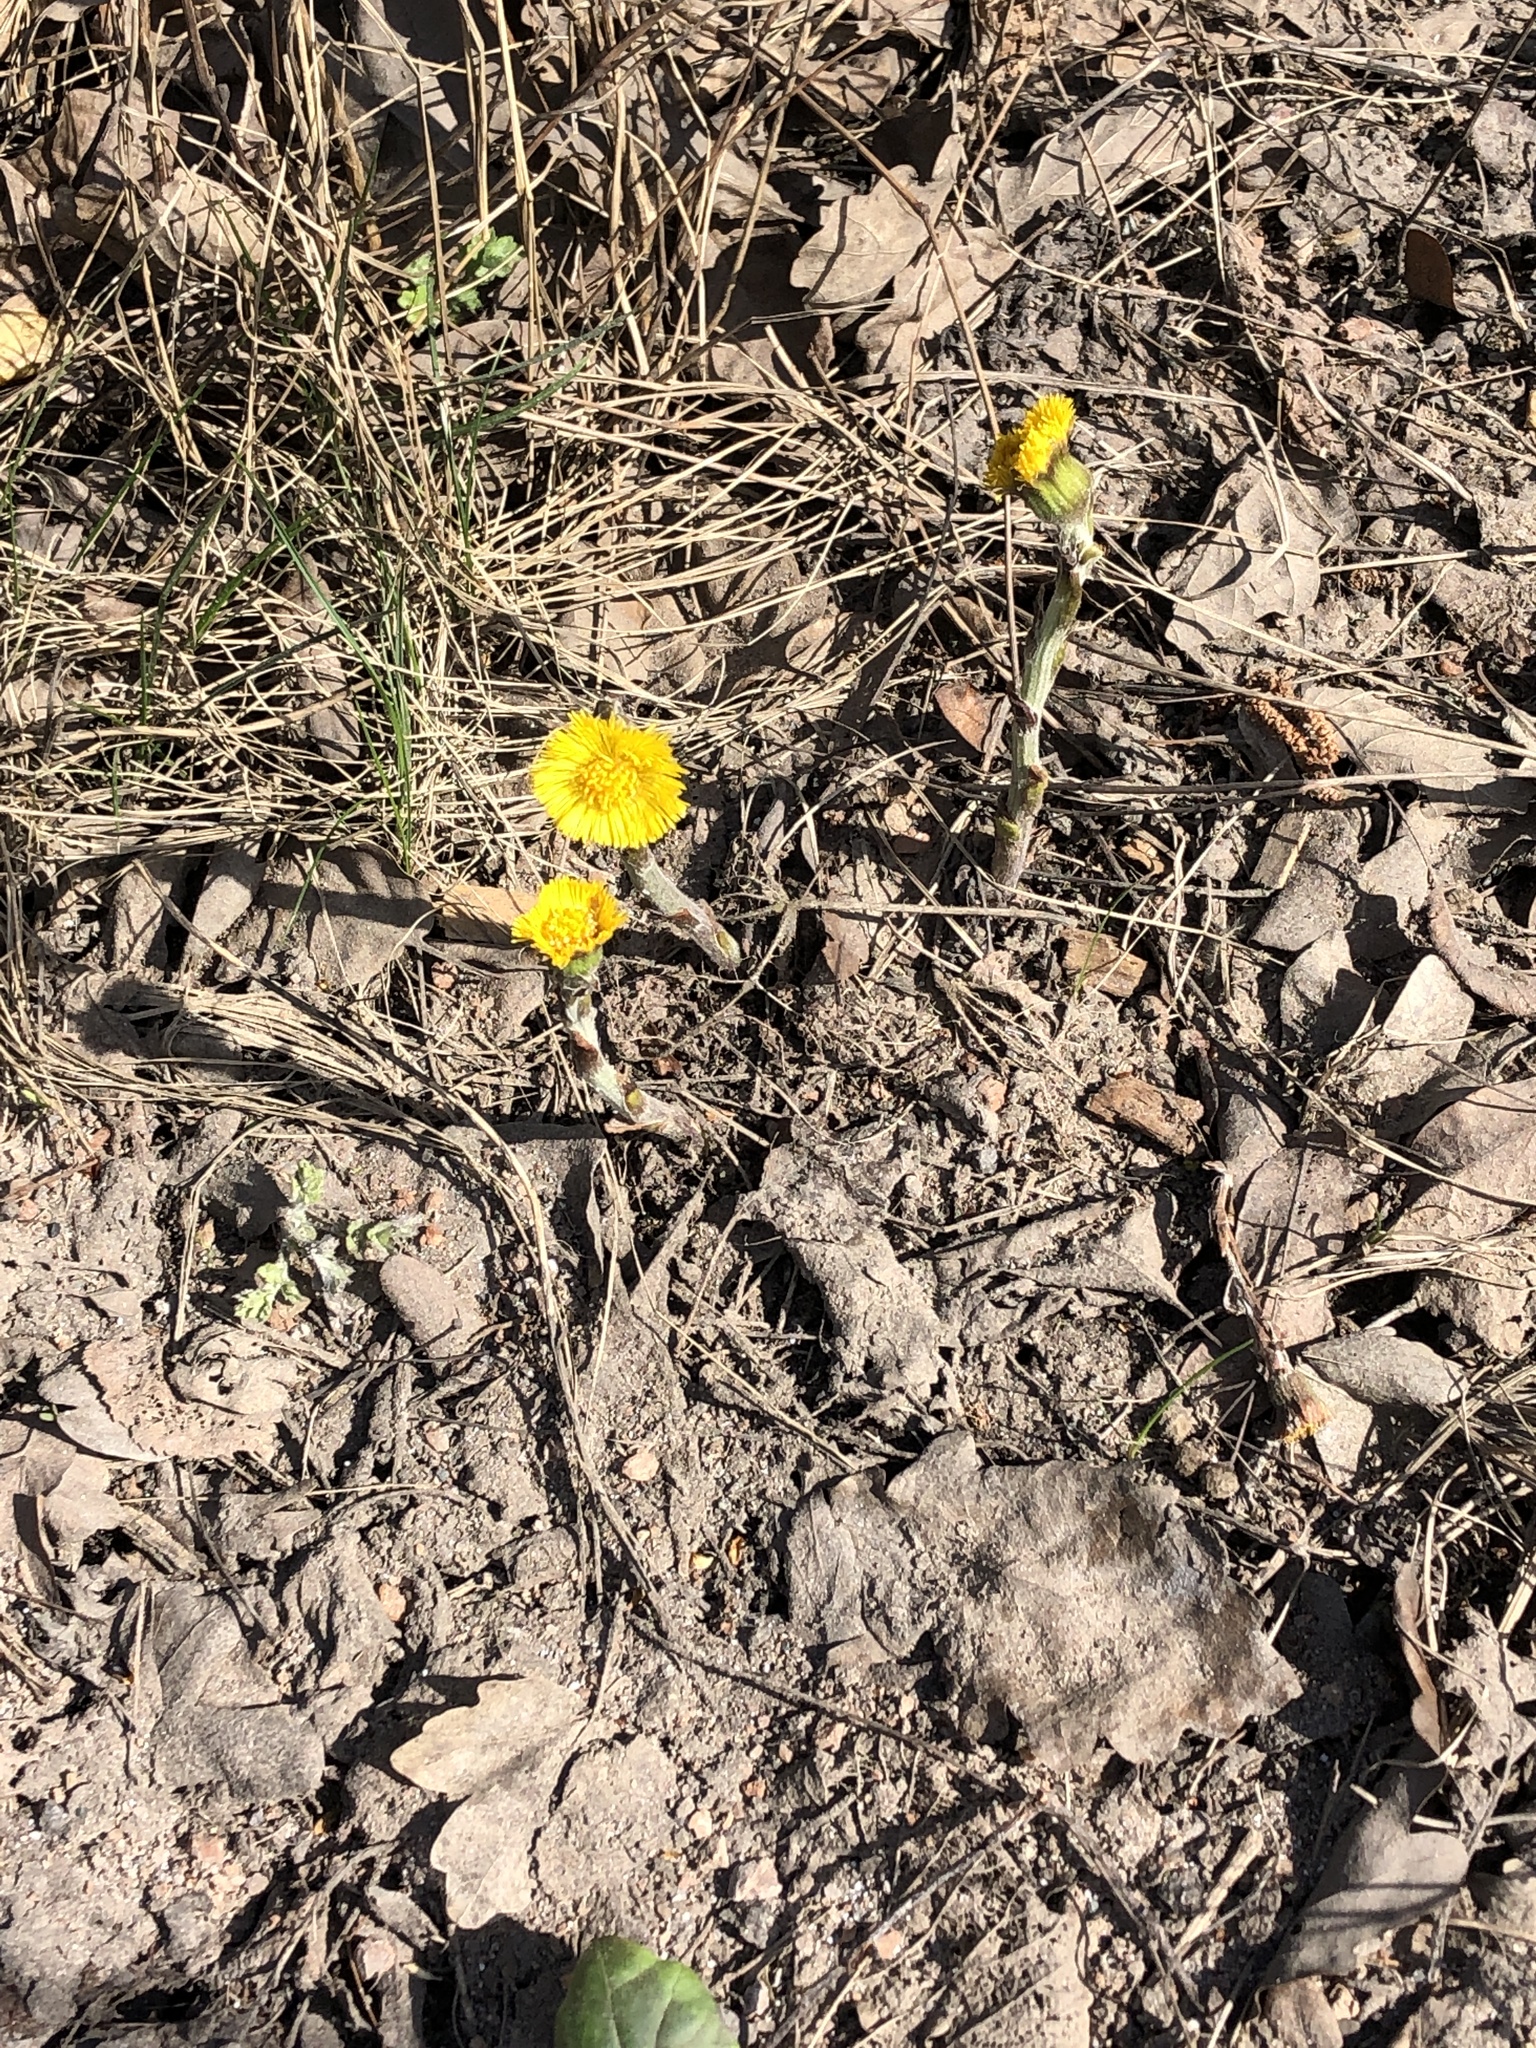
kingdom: Plantae
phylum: Tracheophyta
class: Magnoliopsida
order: Asterales
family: Asteraceae
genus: Tussilago
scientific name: Tussilago farfara
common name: Coltsfoot
